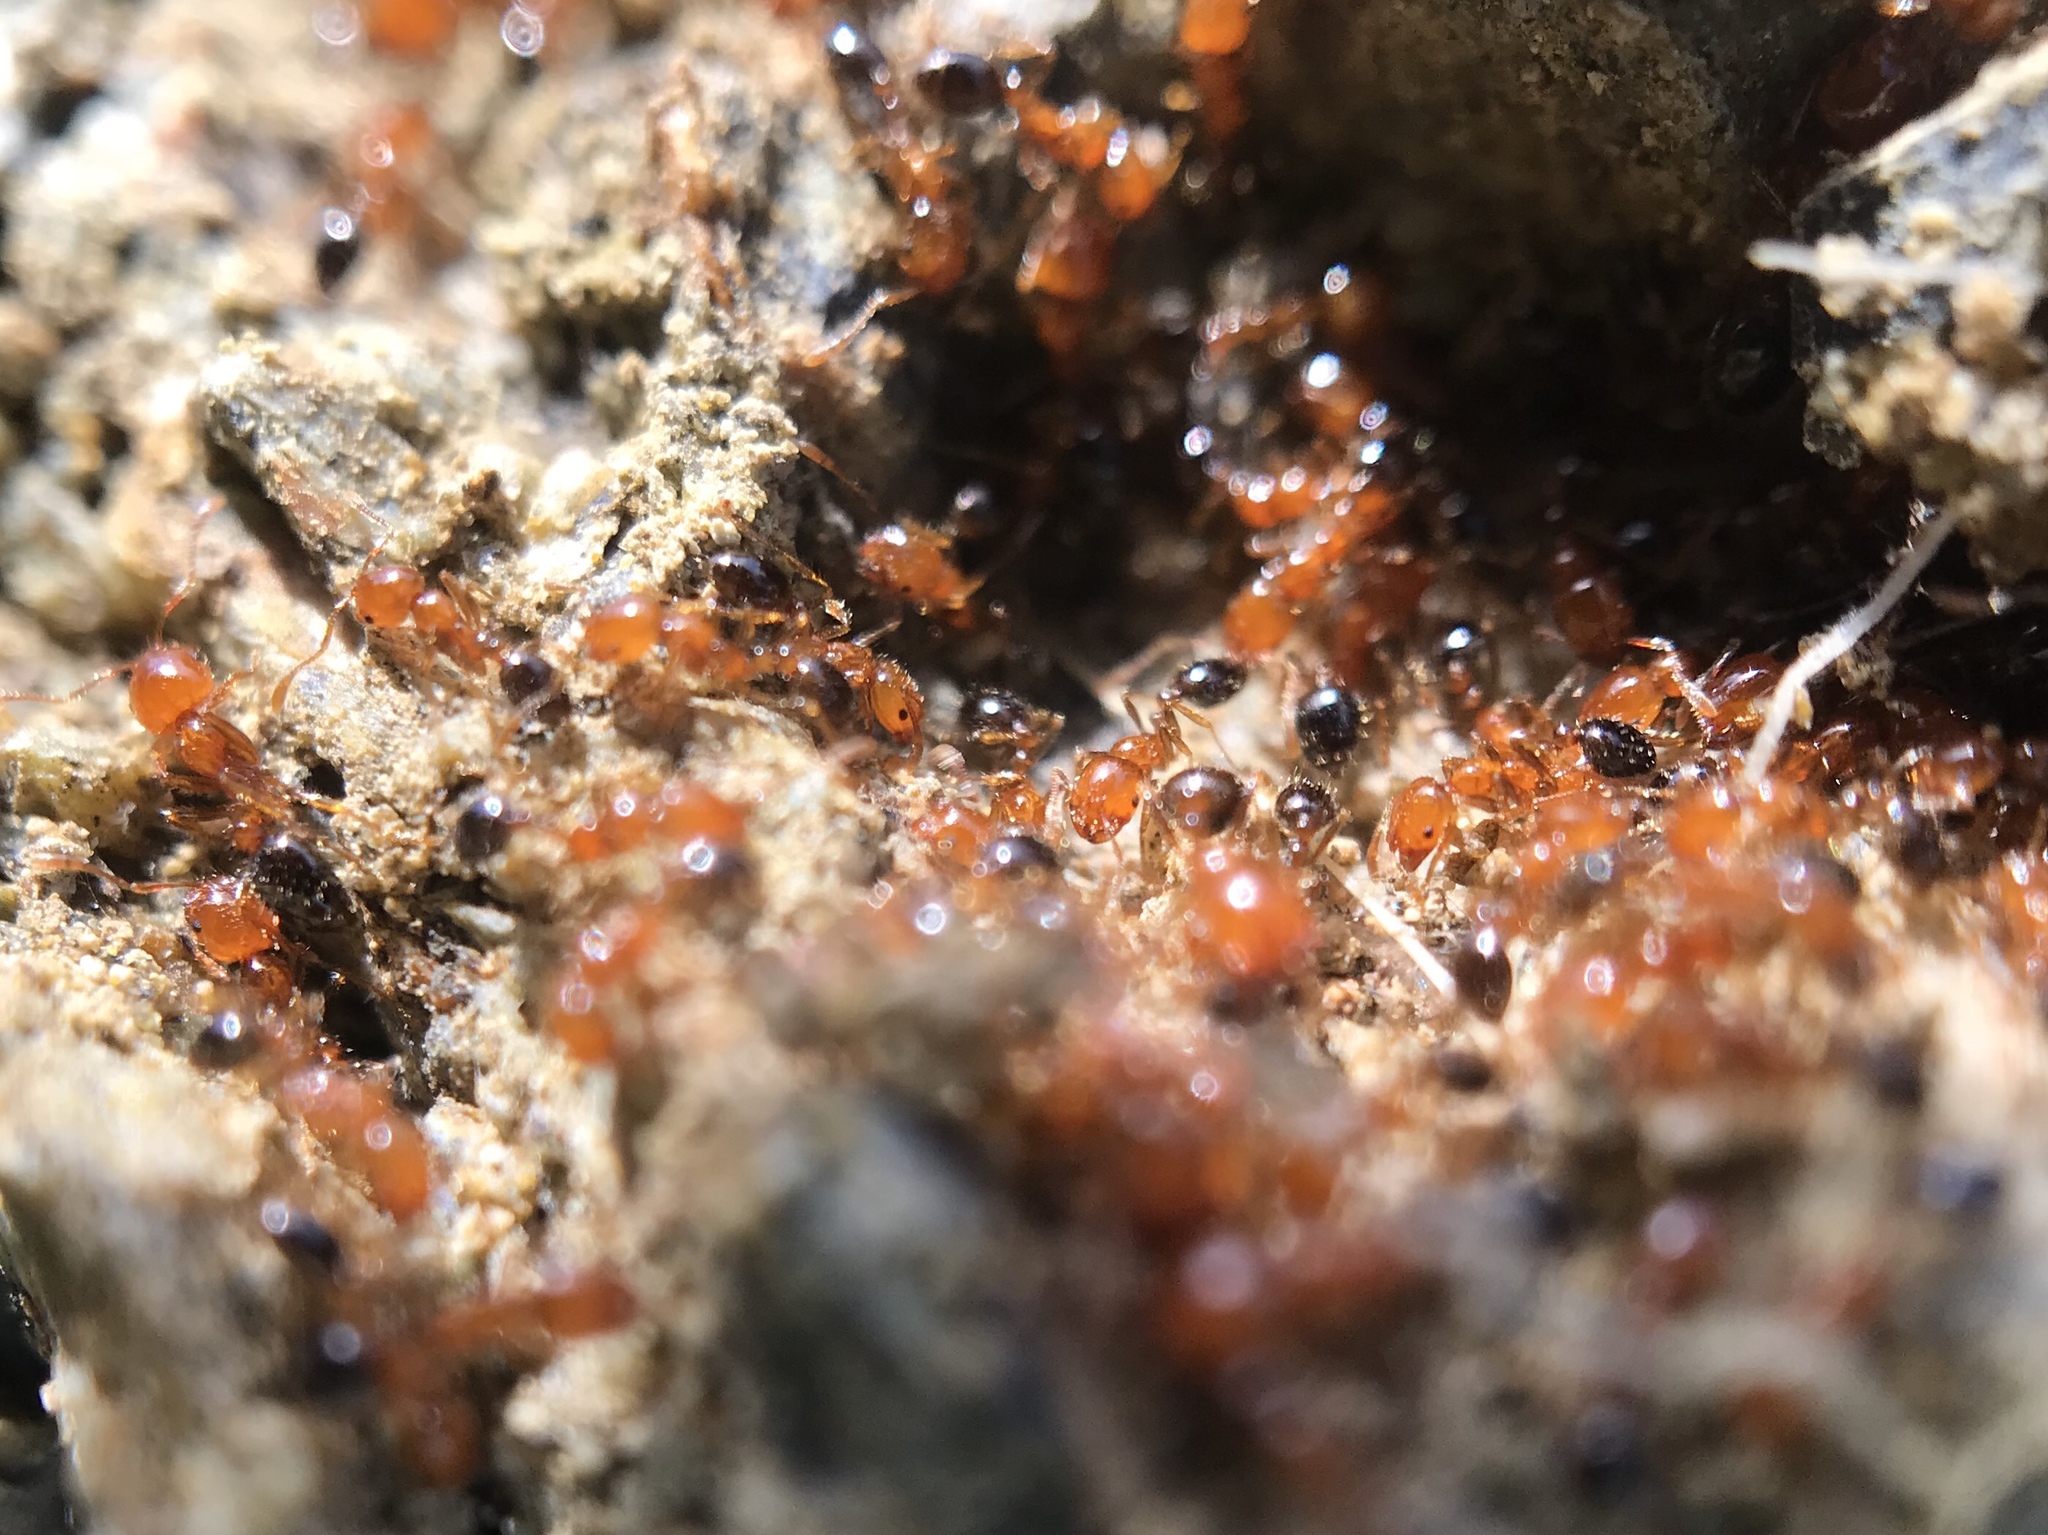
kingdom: Animalia
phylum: Arthropoda
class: Insecta
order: Hymenoptera
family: Formicidae
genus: Solenopsis
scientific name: Solenopsis xyloni
